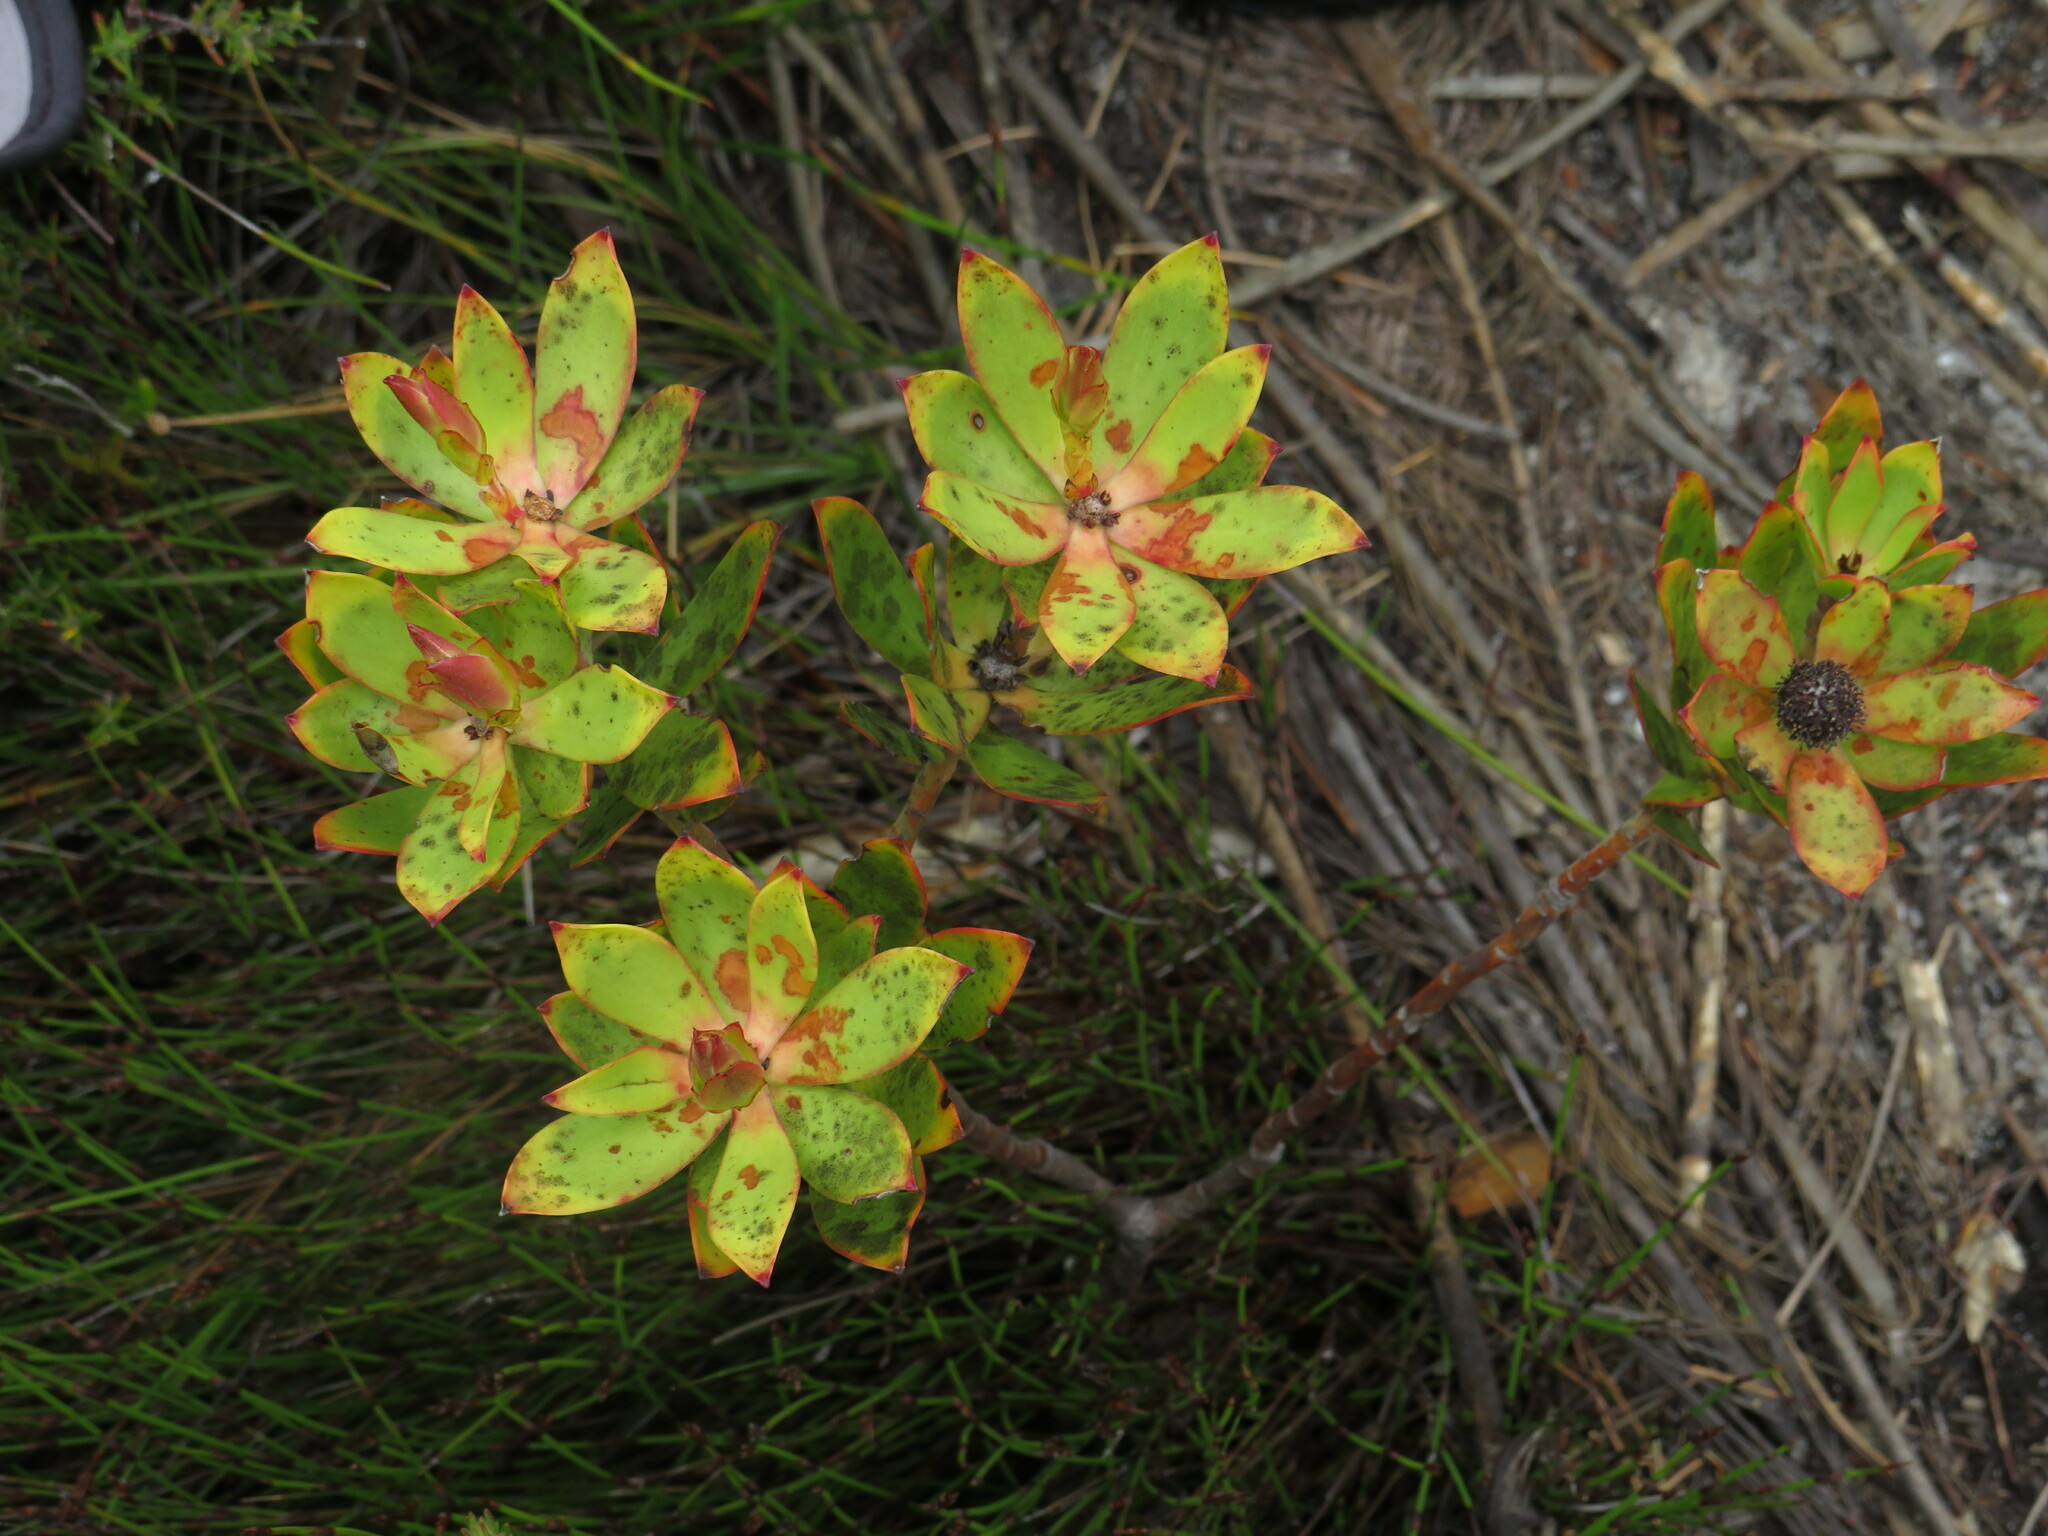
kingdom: Plantae
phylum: Tracheophyta
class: Magnoliopsida
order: Proteales
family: Proteaceae
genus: Leucadendron
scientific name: Leucadendron gandogeri
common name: Broad-leaf conebush
